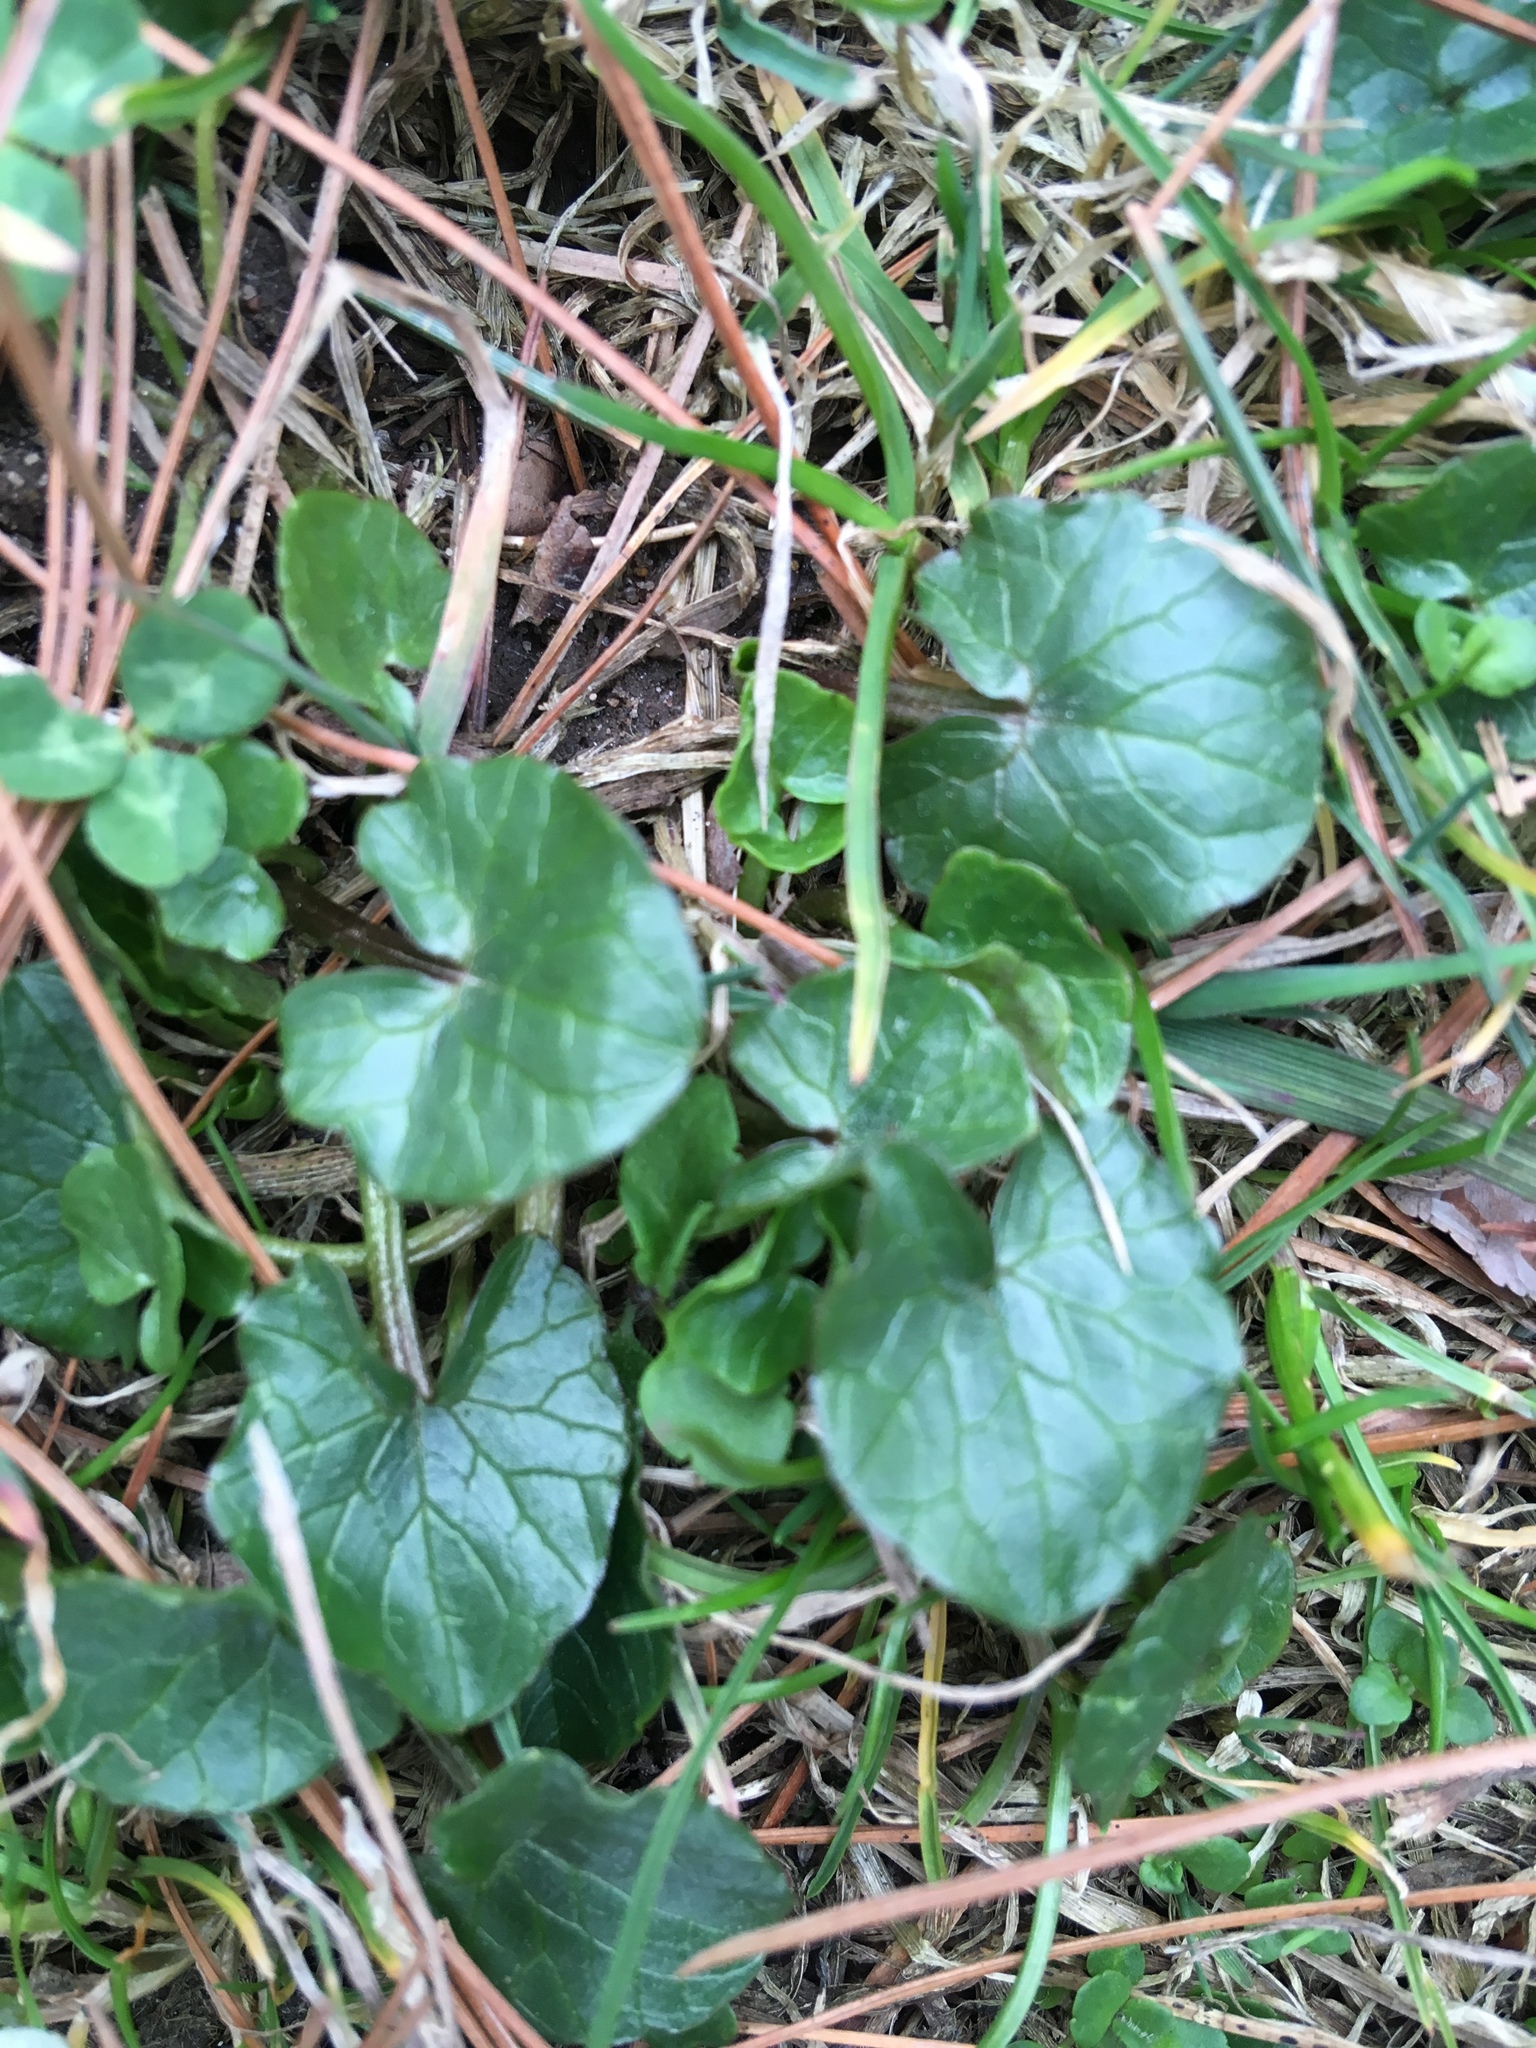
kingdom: Plantae
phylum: Tracheophyta
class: Magnoliopsida
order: Ranunculales
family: Ranunculaceae
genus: Ficaria
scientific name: Ficaria verna
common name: Lesser celandine
